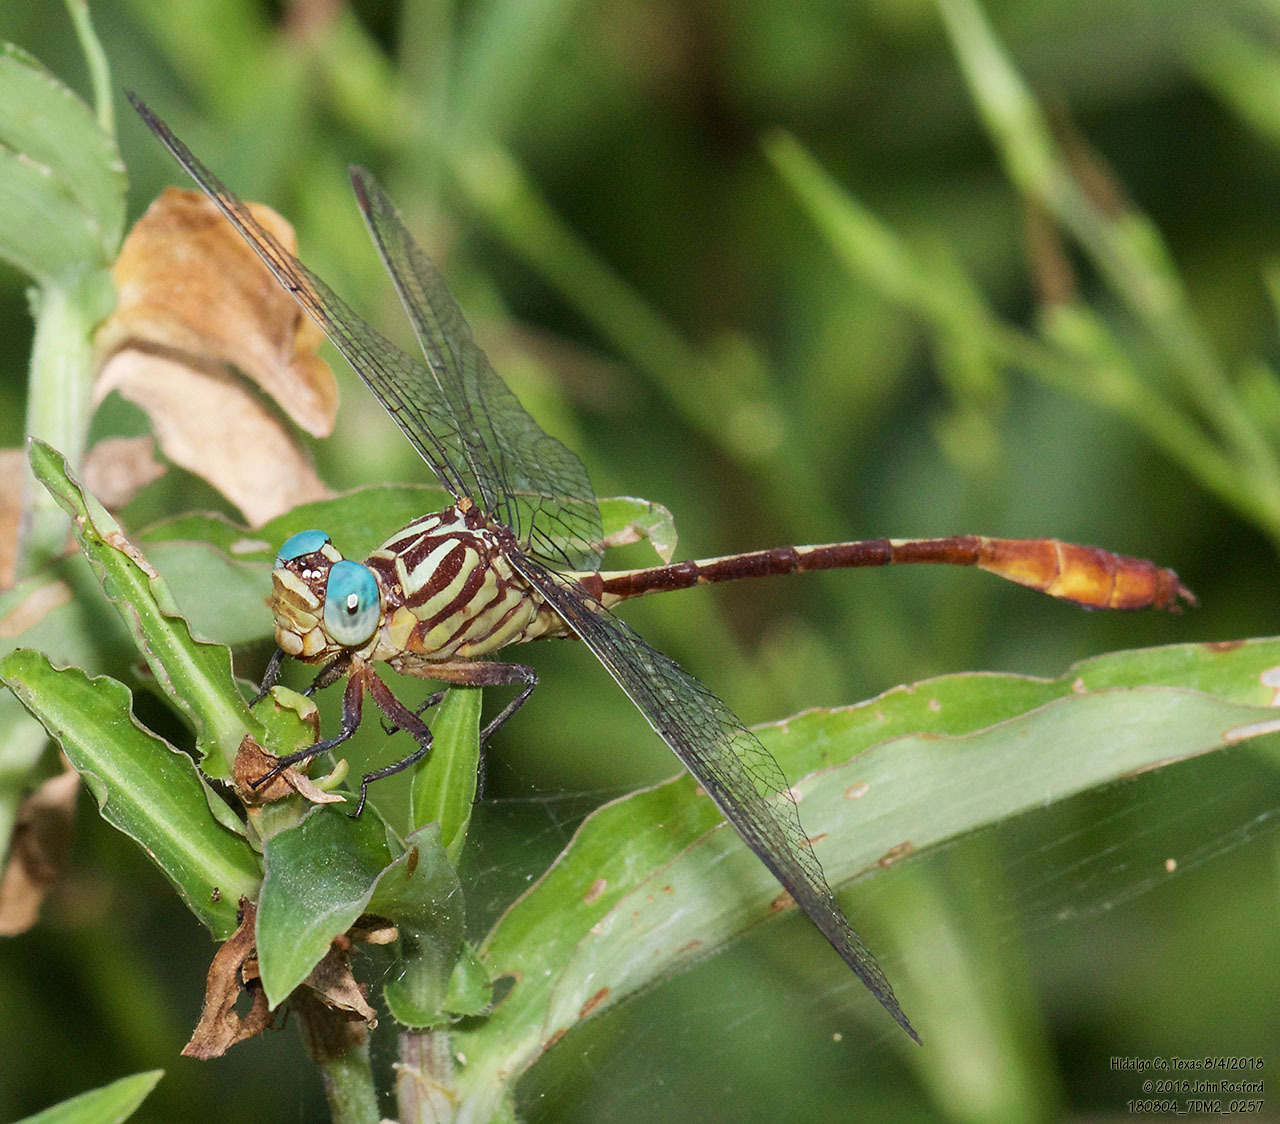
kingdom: Animalia
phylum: Arthropoda
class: Insecta
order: Odonata
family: Gomphidae
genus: Stylurus
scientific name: Stylurus plagiatus
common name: Russet-tipped clubtail
